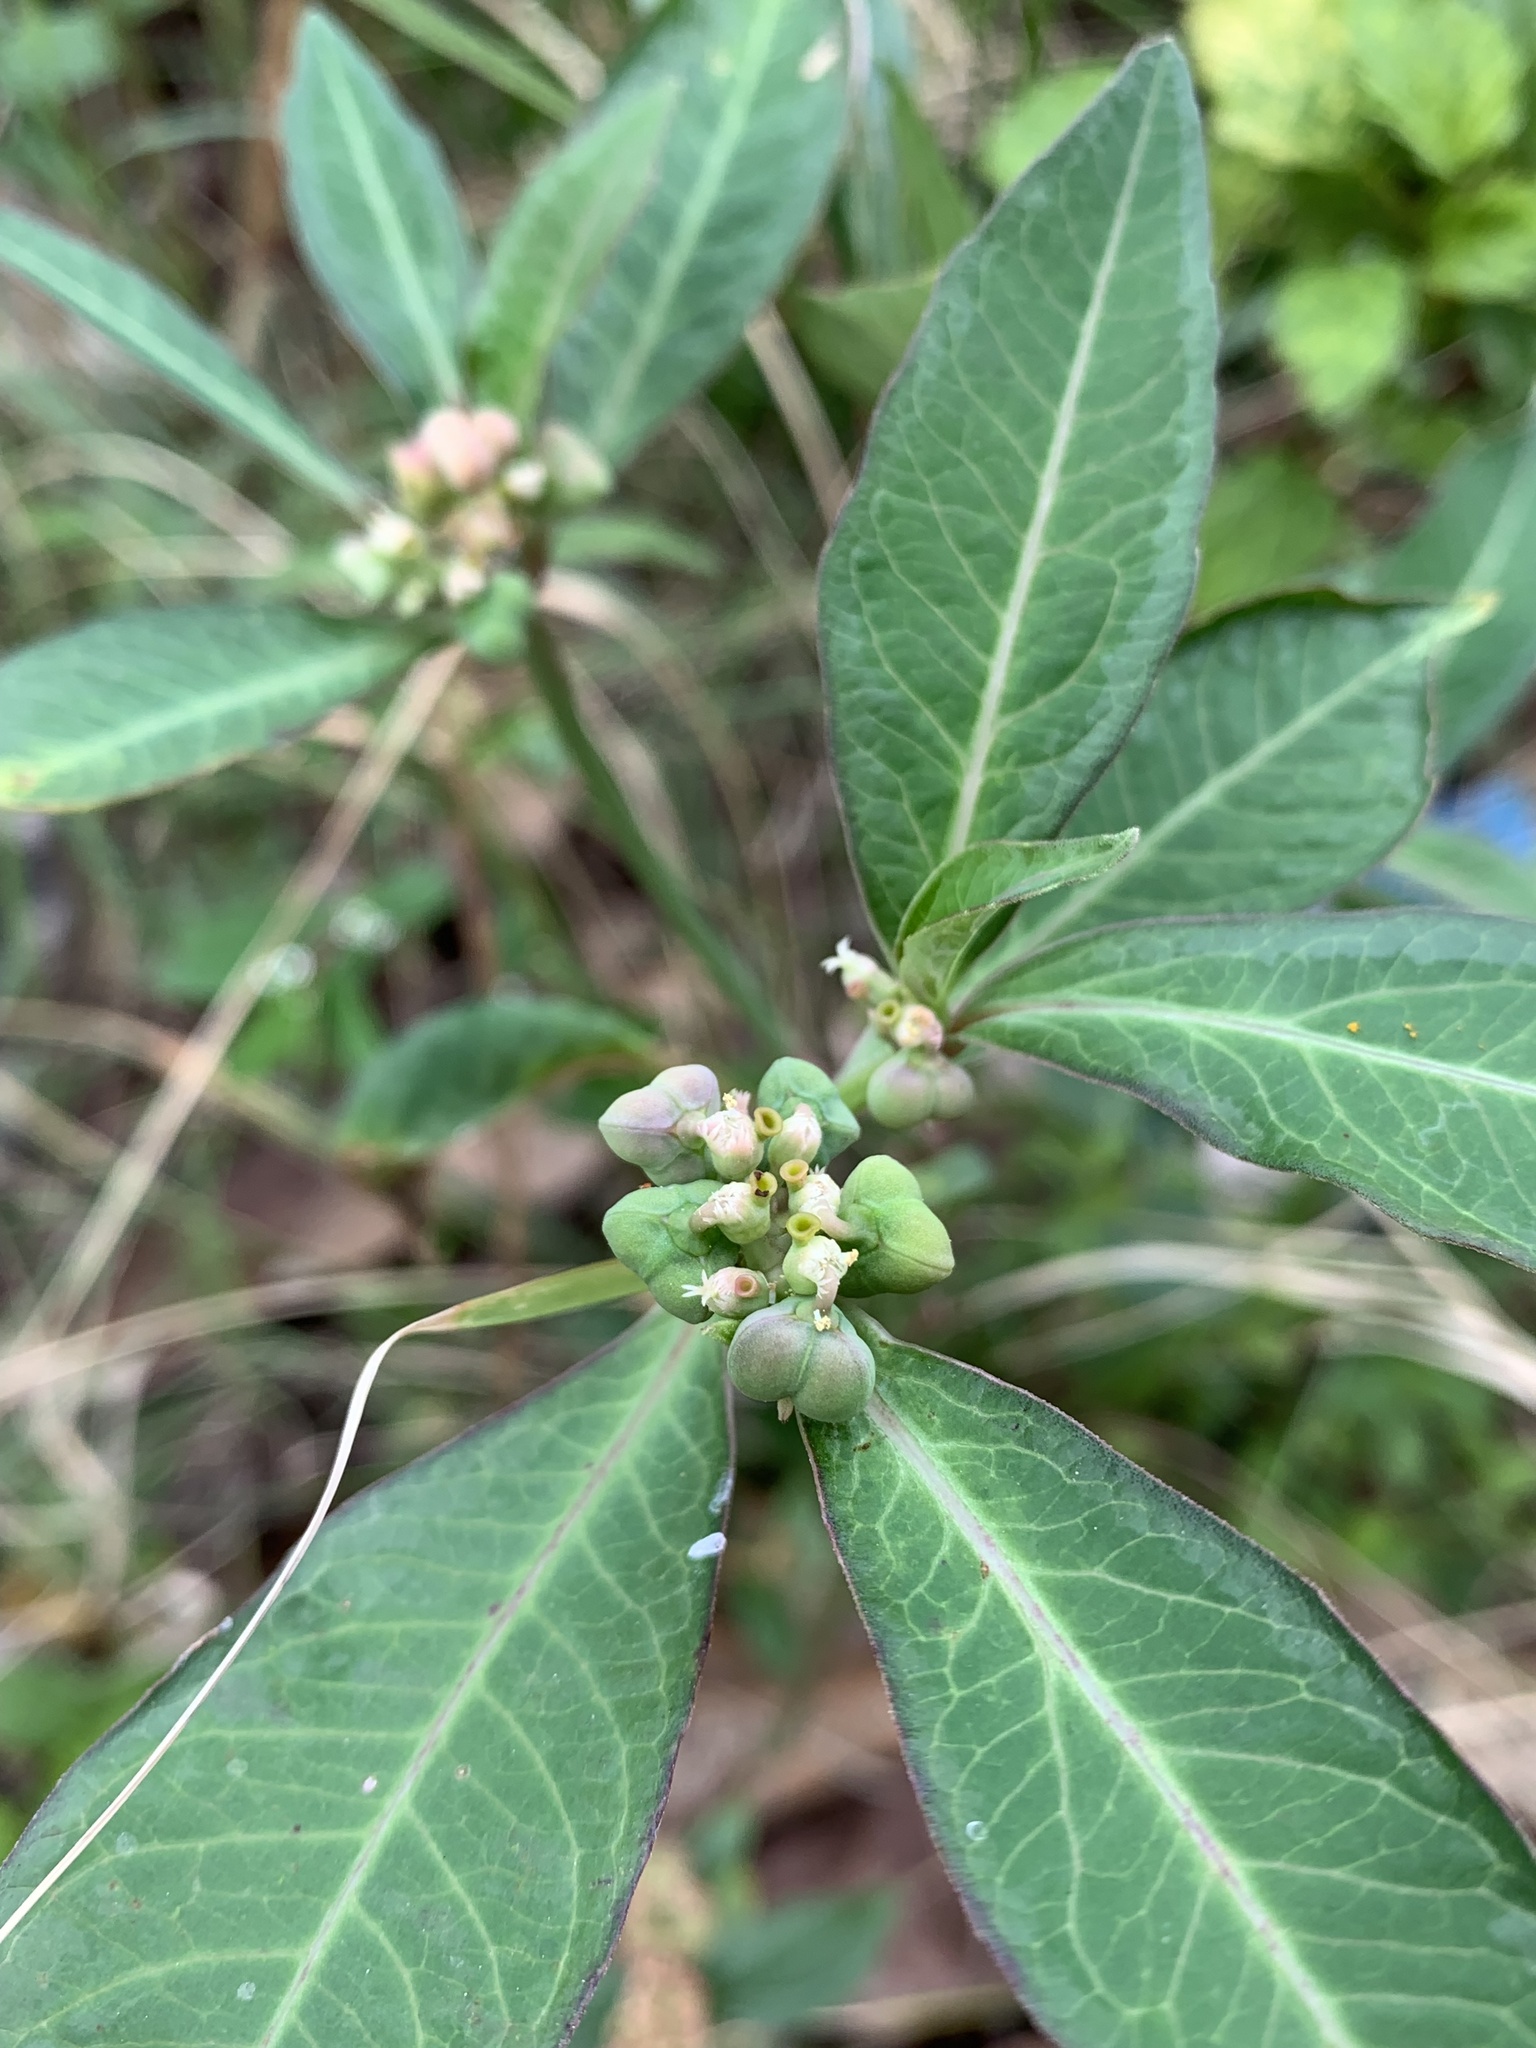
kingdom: Plantae
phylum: Tracheophyta
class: Magnoliopsida
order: Malpighiales
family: Euphorbiaceae
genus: Euphorbia
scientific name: Euphorbia heterophylla
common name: Mexican fireplant
